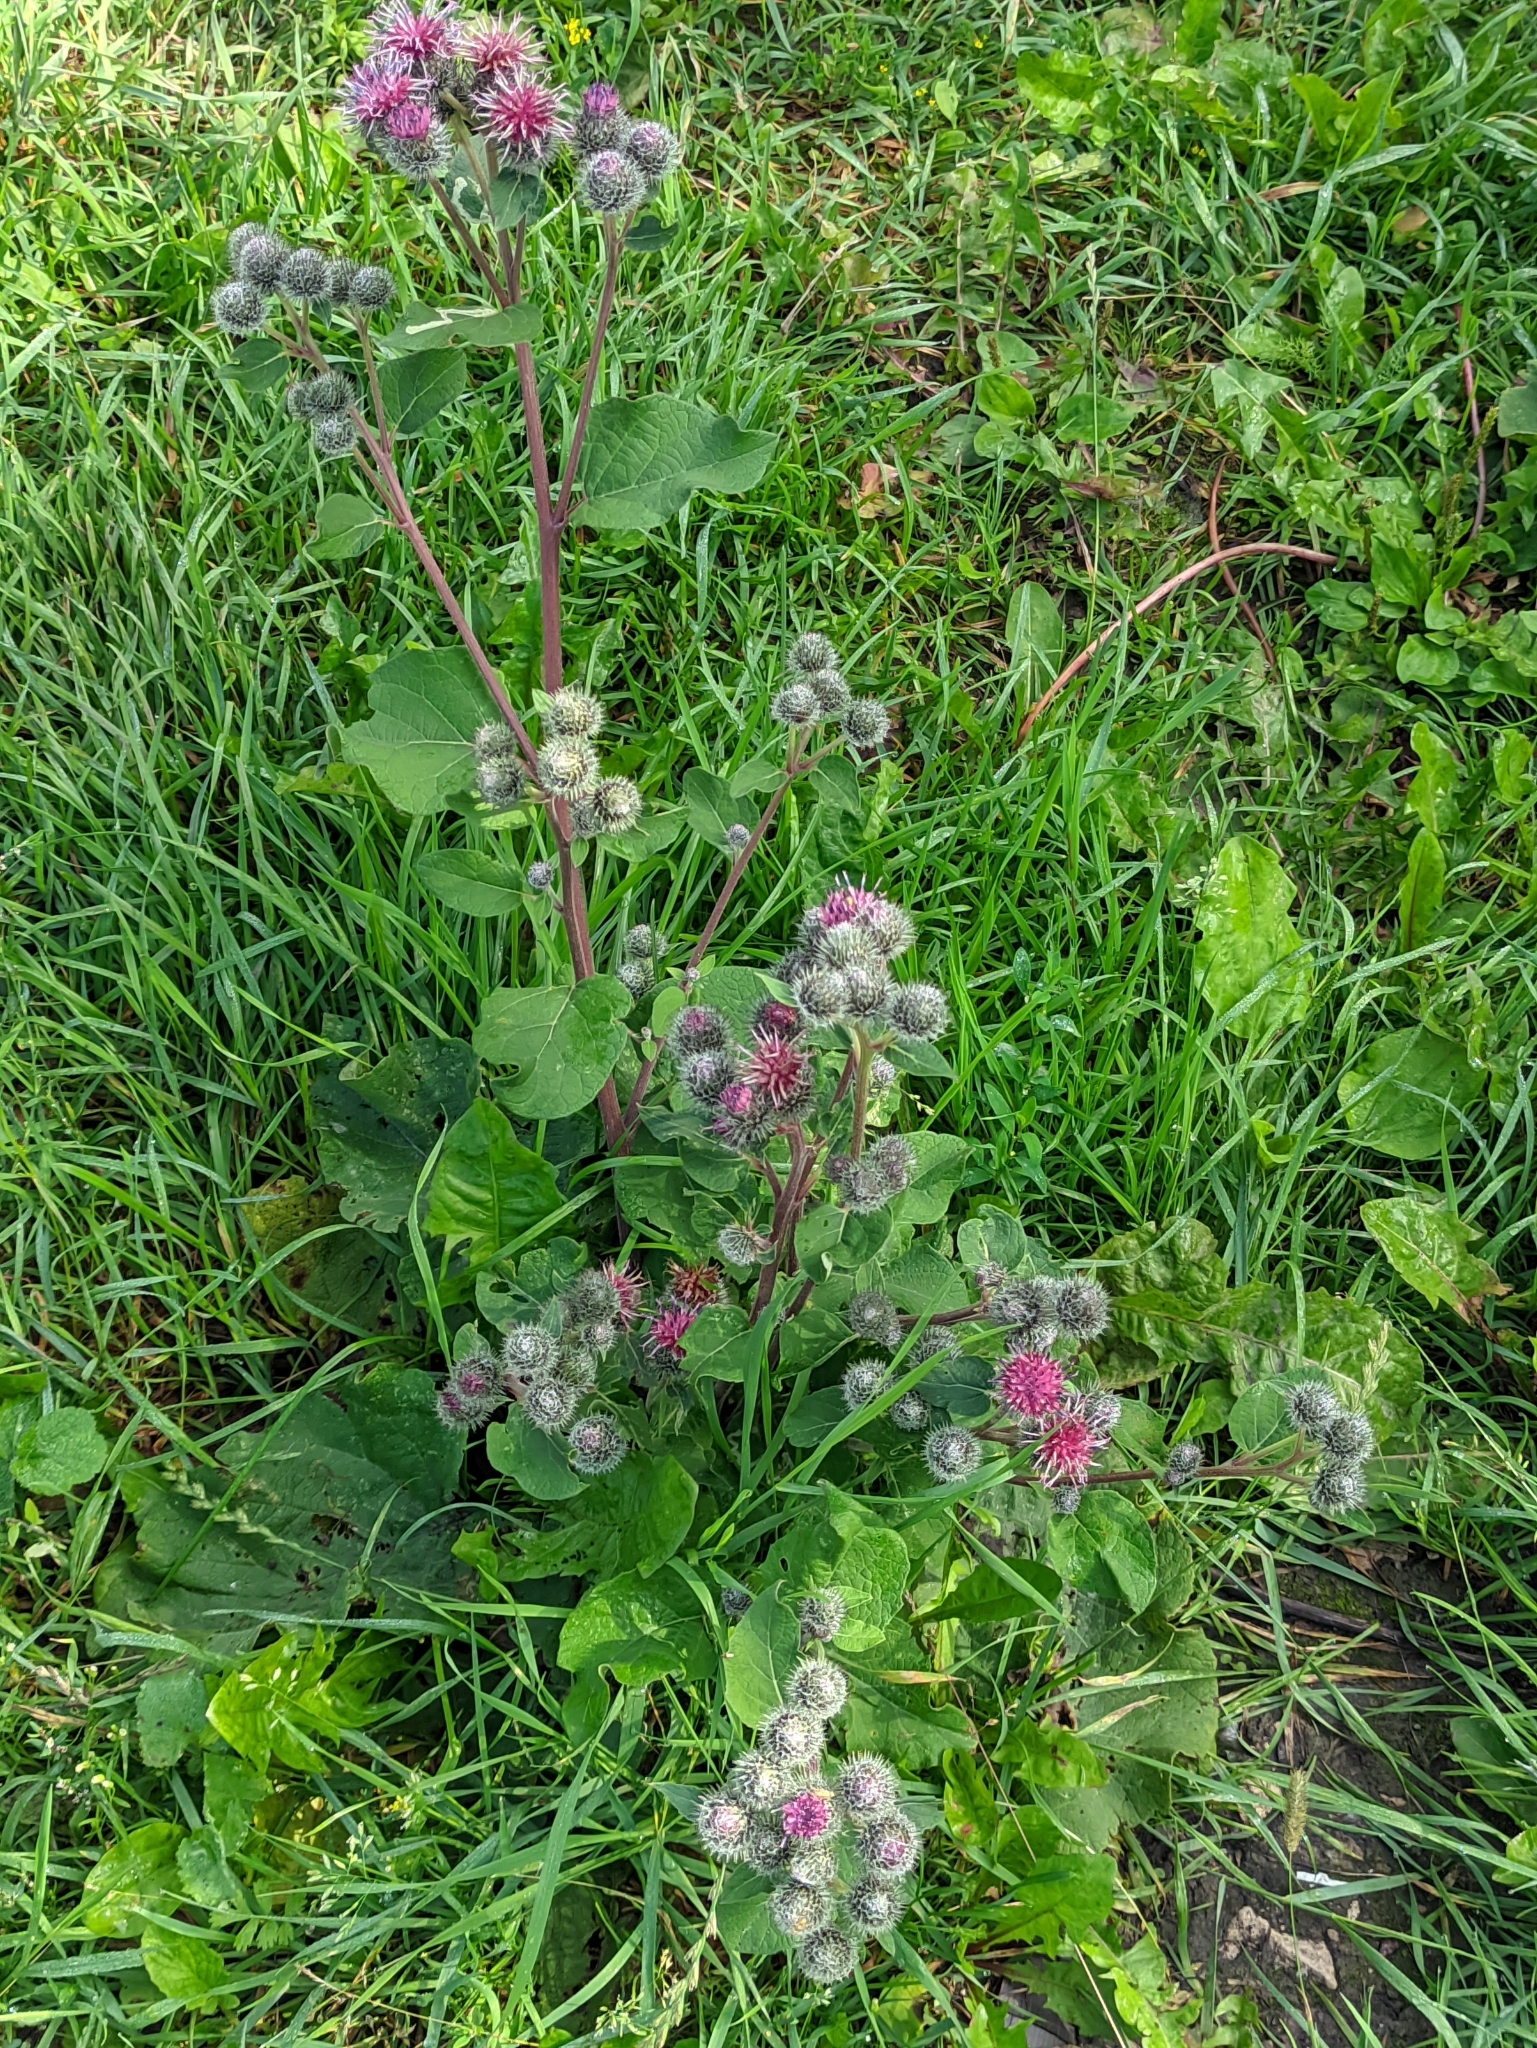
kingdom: Plantae
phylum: Tracheophyta
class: Magnoliopsida
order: Asterales
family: Asteraceae
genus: Arctium
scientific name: Arctium tomentosum
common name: Woolly burdock
